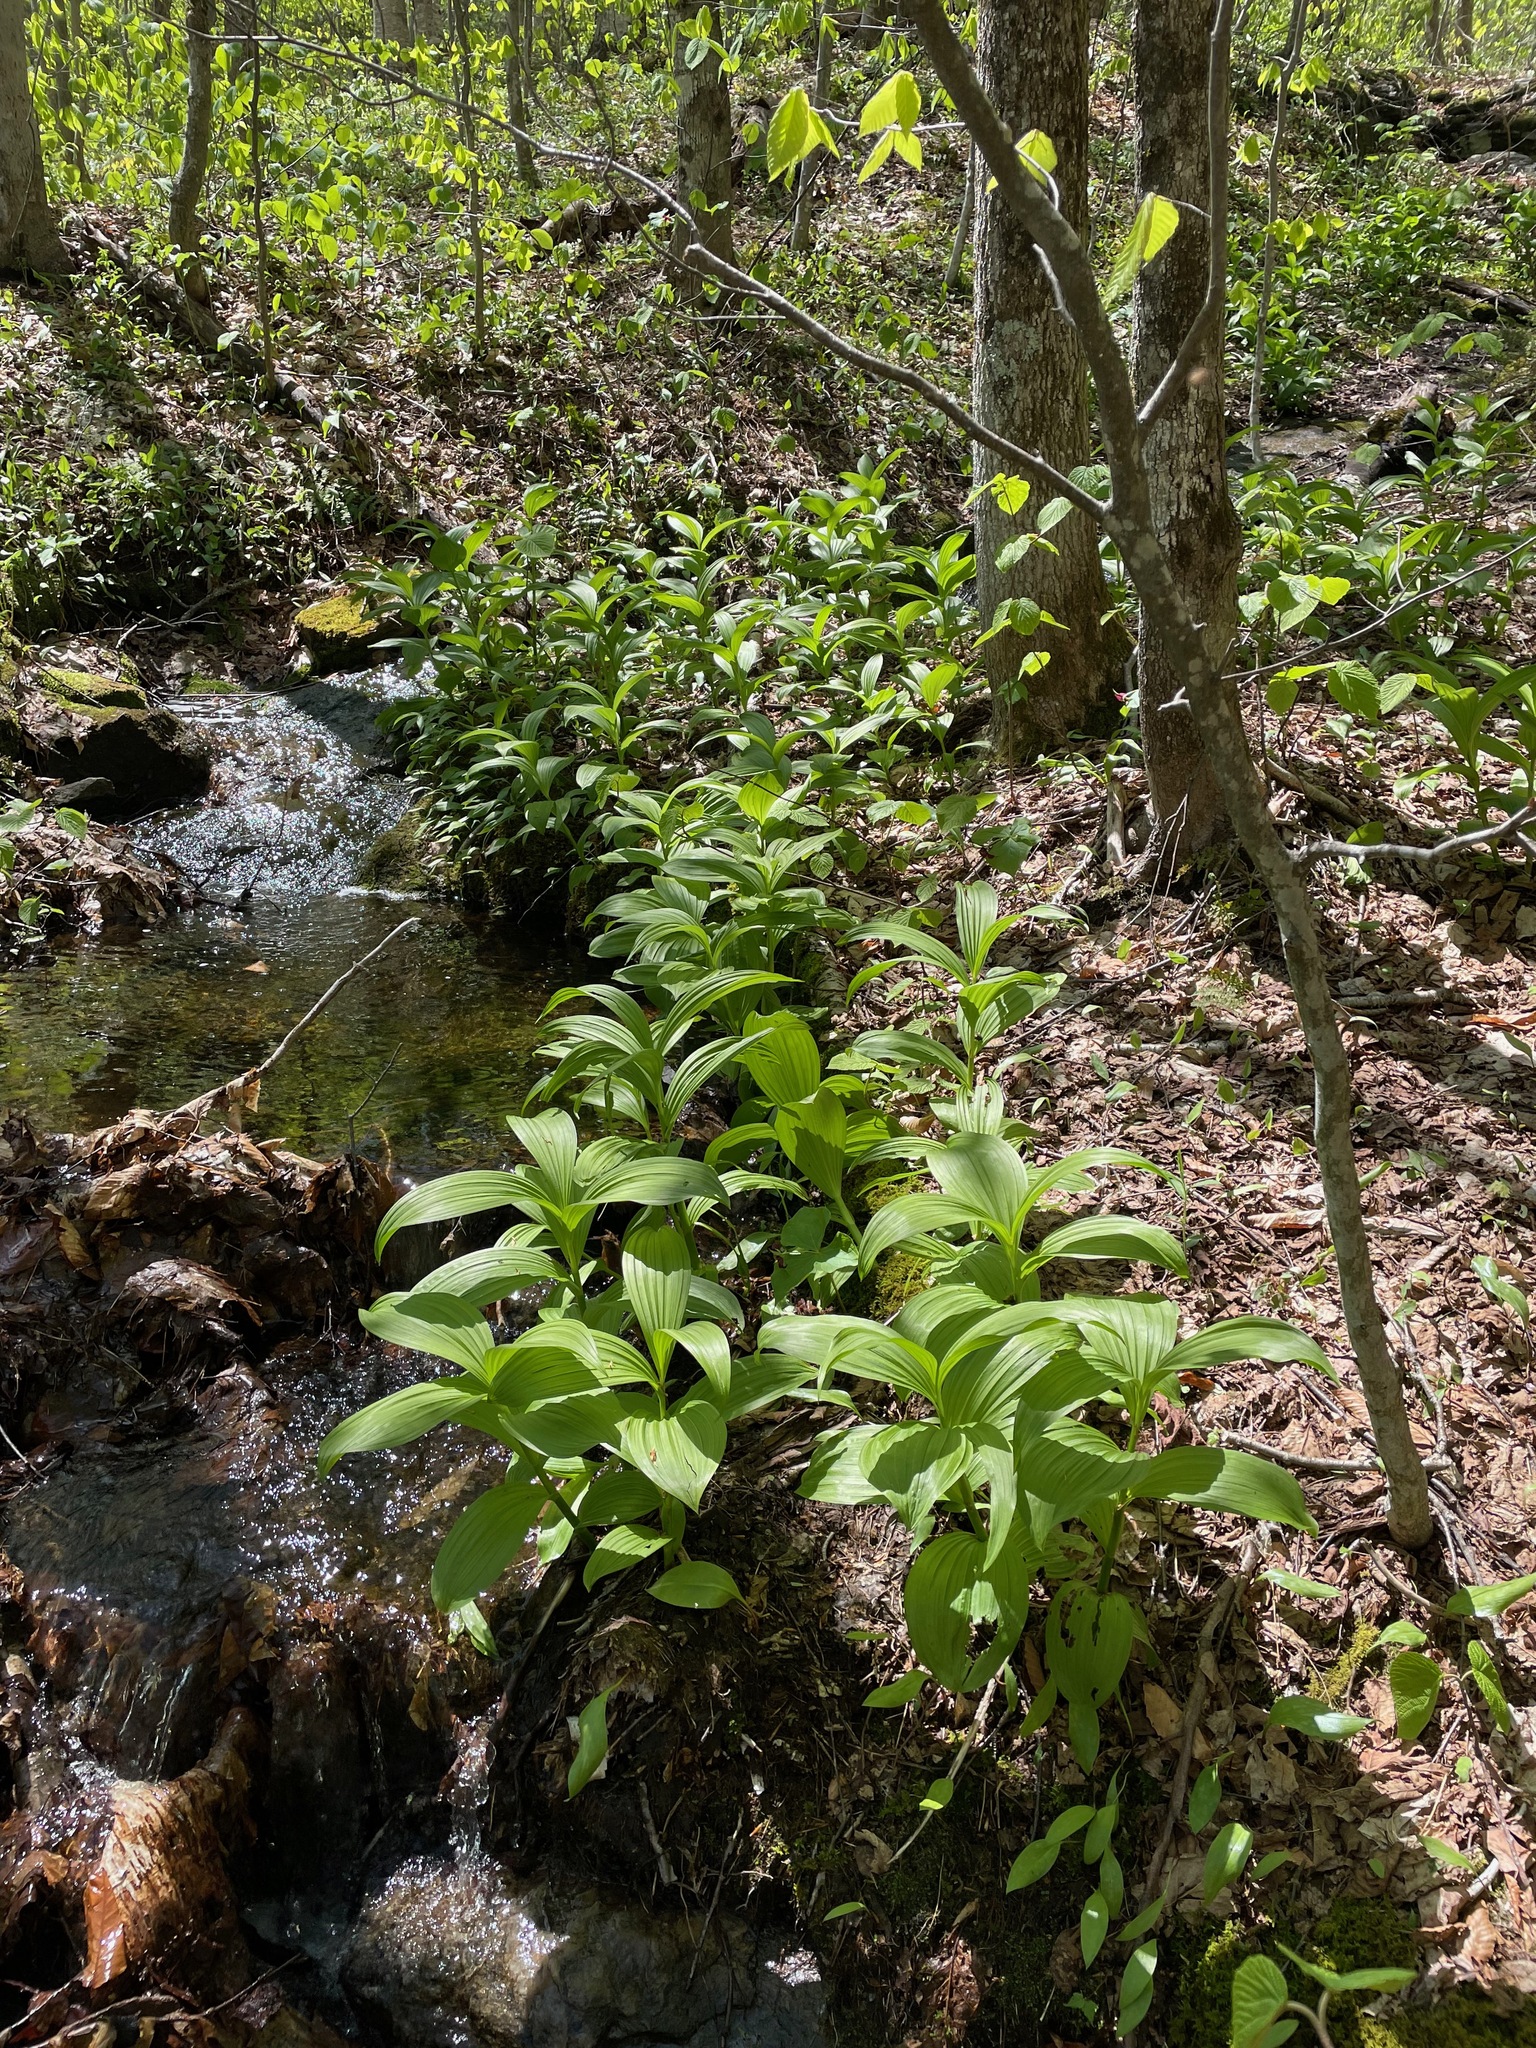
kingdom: Plantae
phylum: Tracheophyta
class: Liliopsida
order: Liliales
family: Melanthiaceae
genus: Veratrum
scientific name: Veratrum viride
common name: American false hellebore
